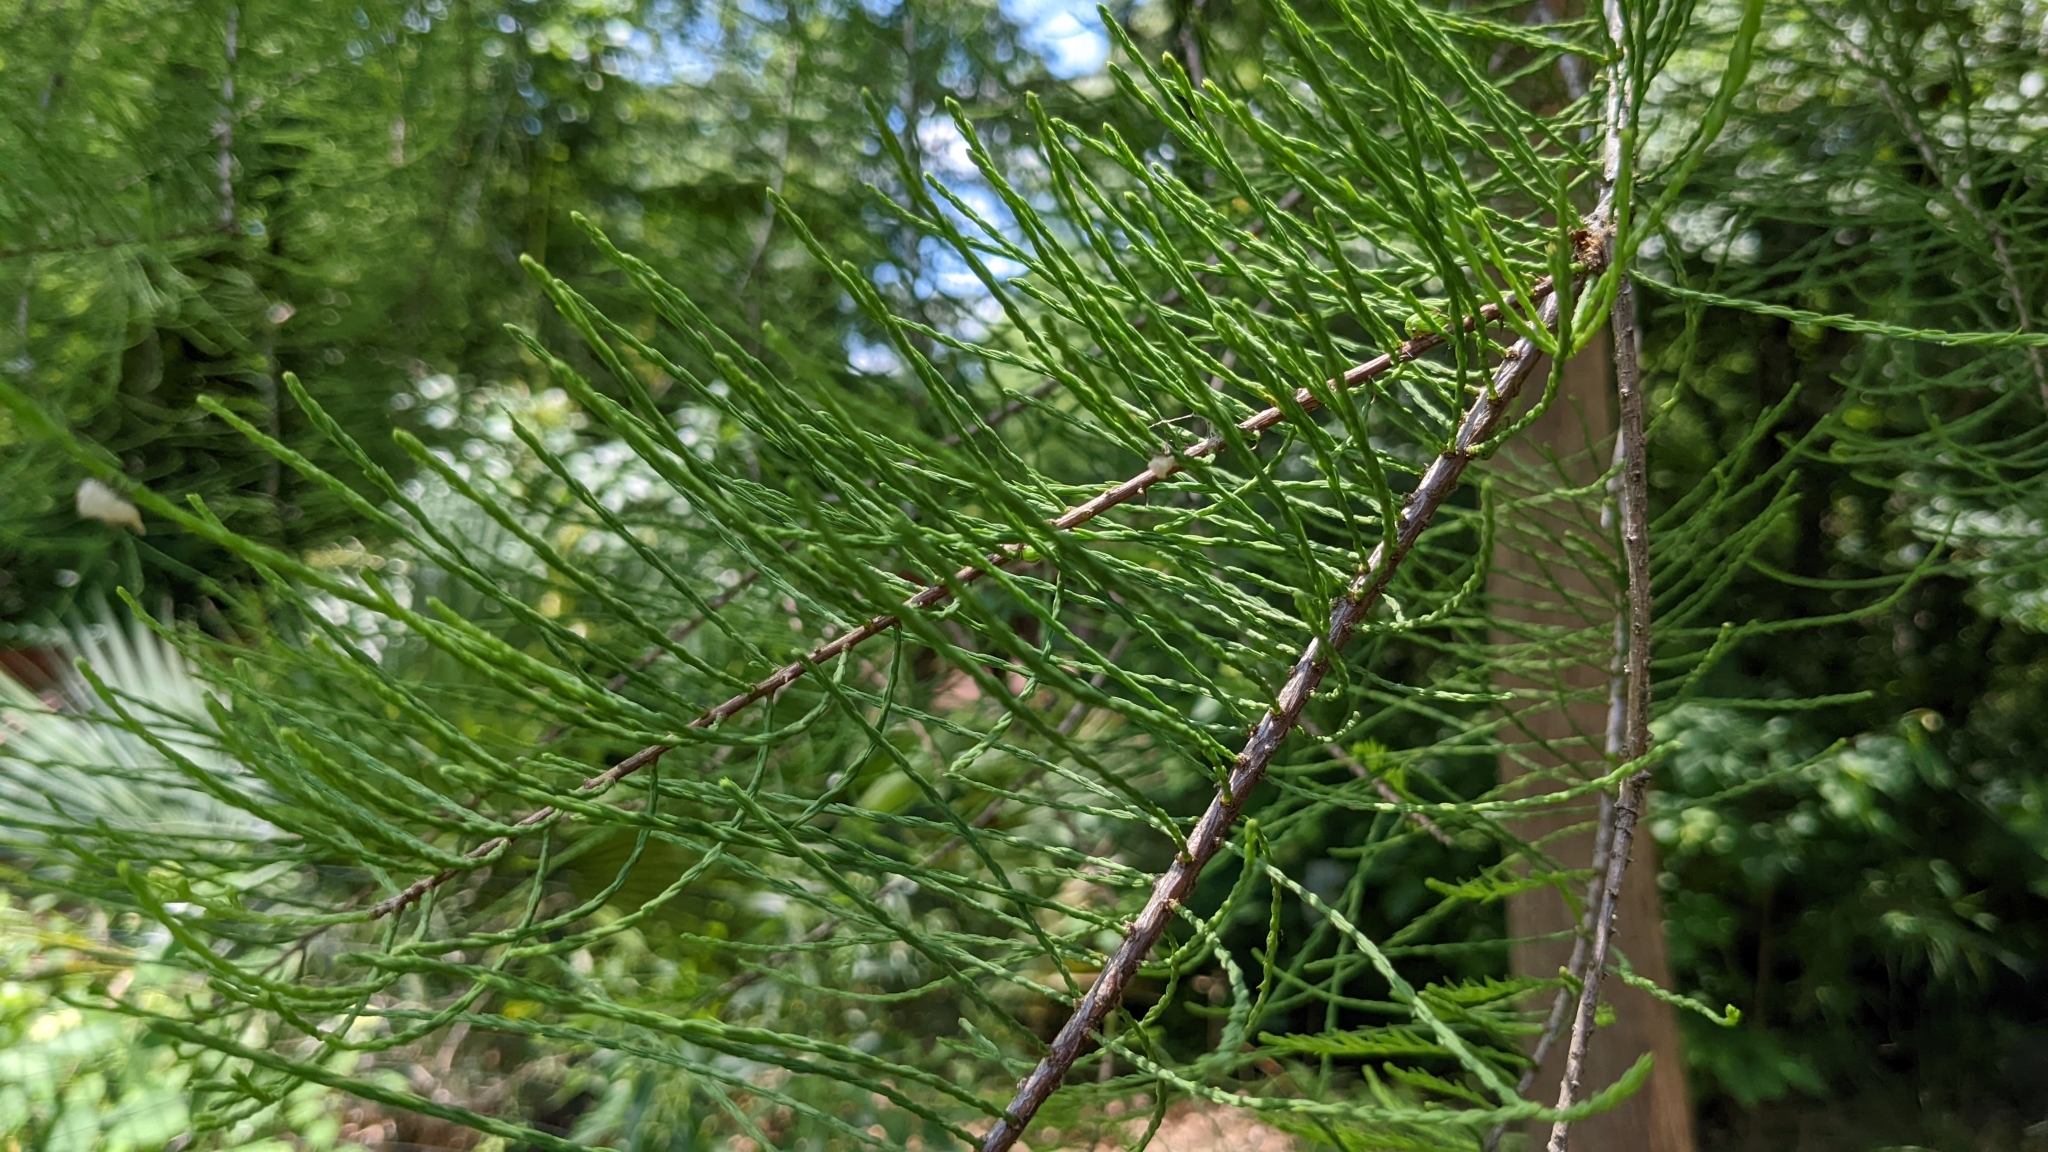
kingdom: Plantae
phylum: Tracheophyta
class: Pinopsida
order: Pinales
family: Cupressaceae
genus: Taxodium
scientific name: Taxodium distichum
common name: Bald cypress
